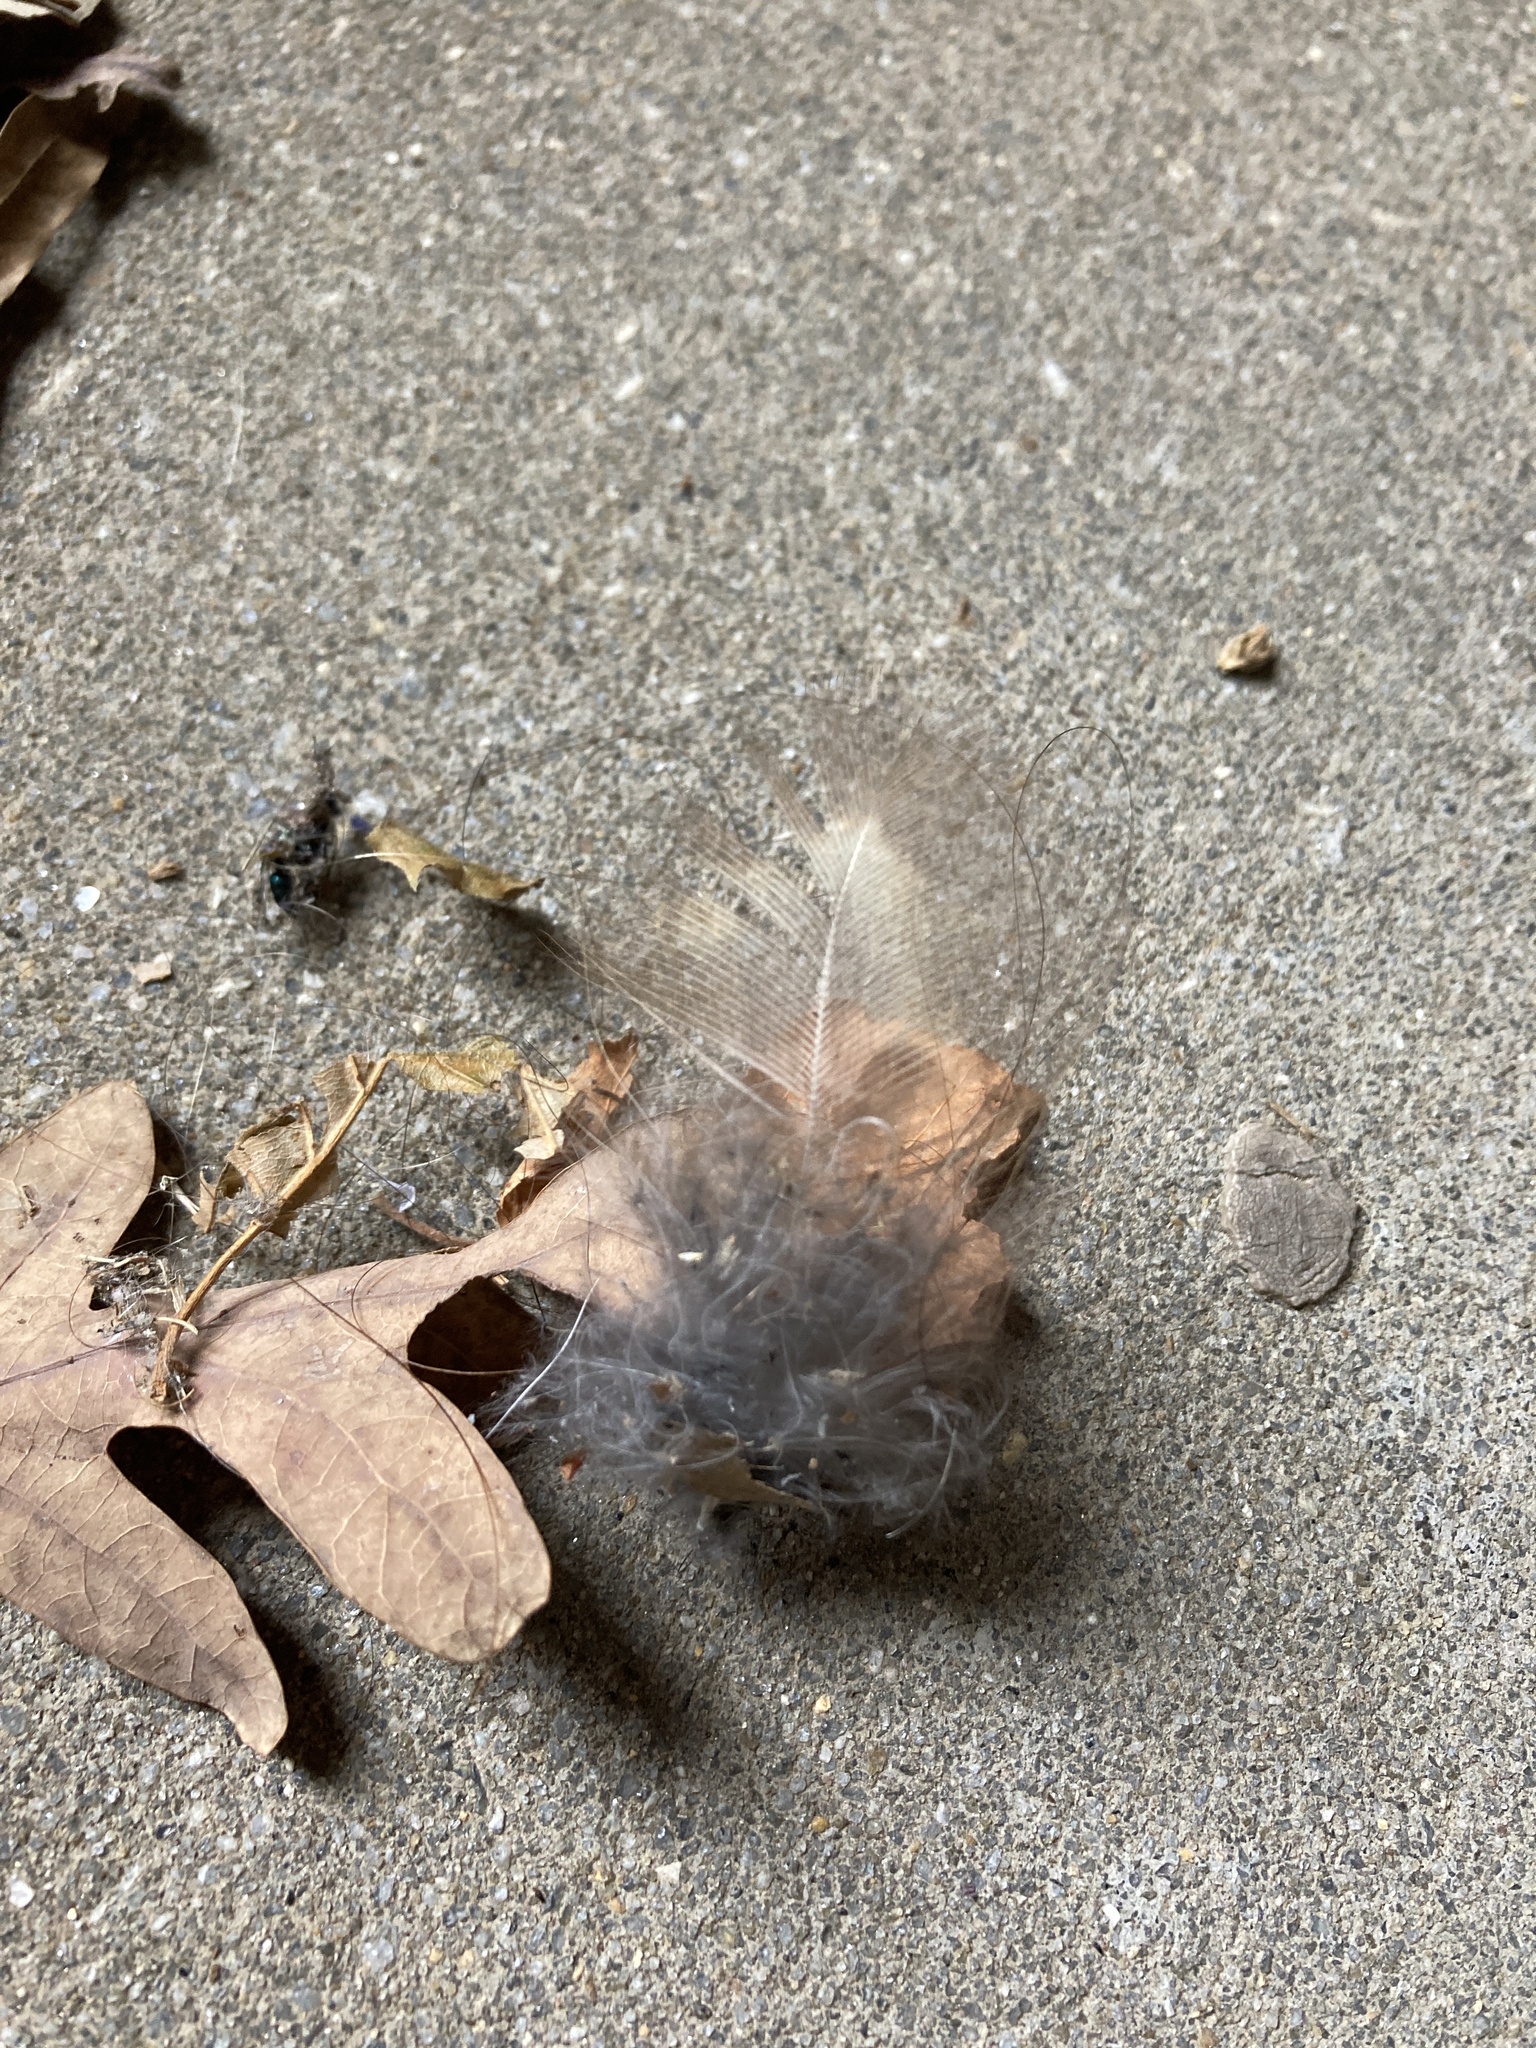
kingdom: Animalia
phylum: Chordata
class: Aves
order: Strigiformes
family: Strigidae
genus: Strix
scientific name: Strix varia
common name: Barred owl
